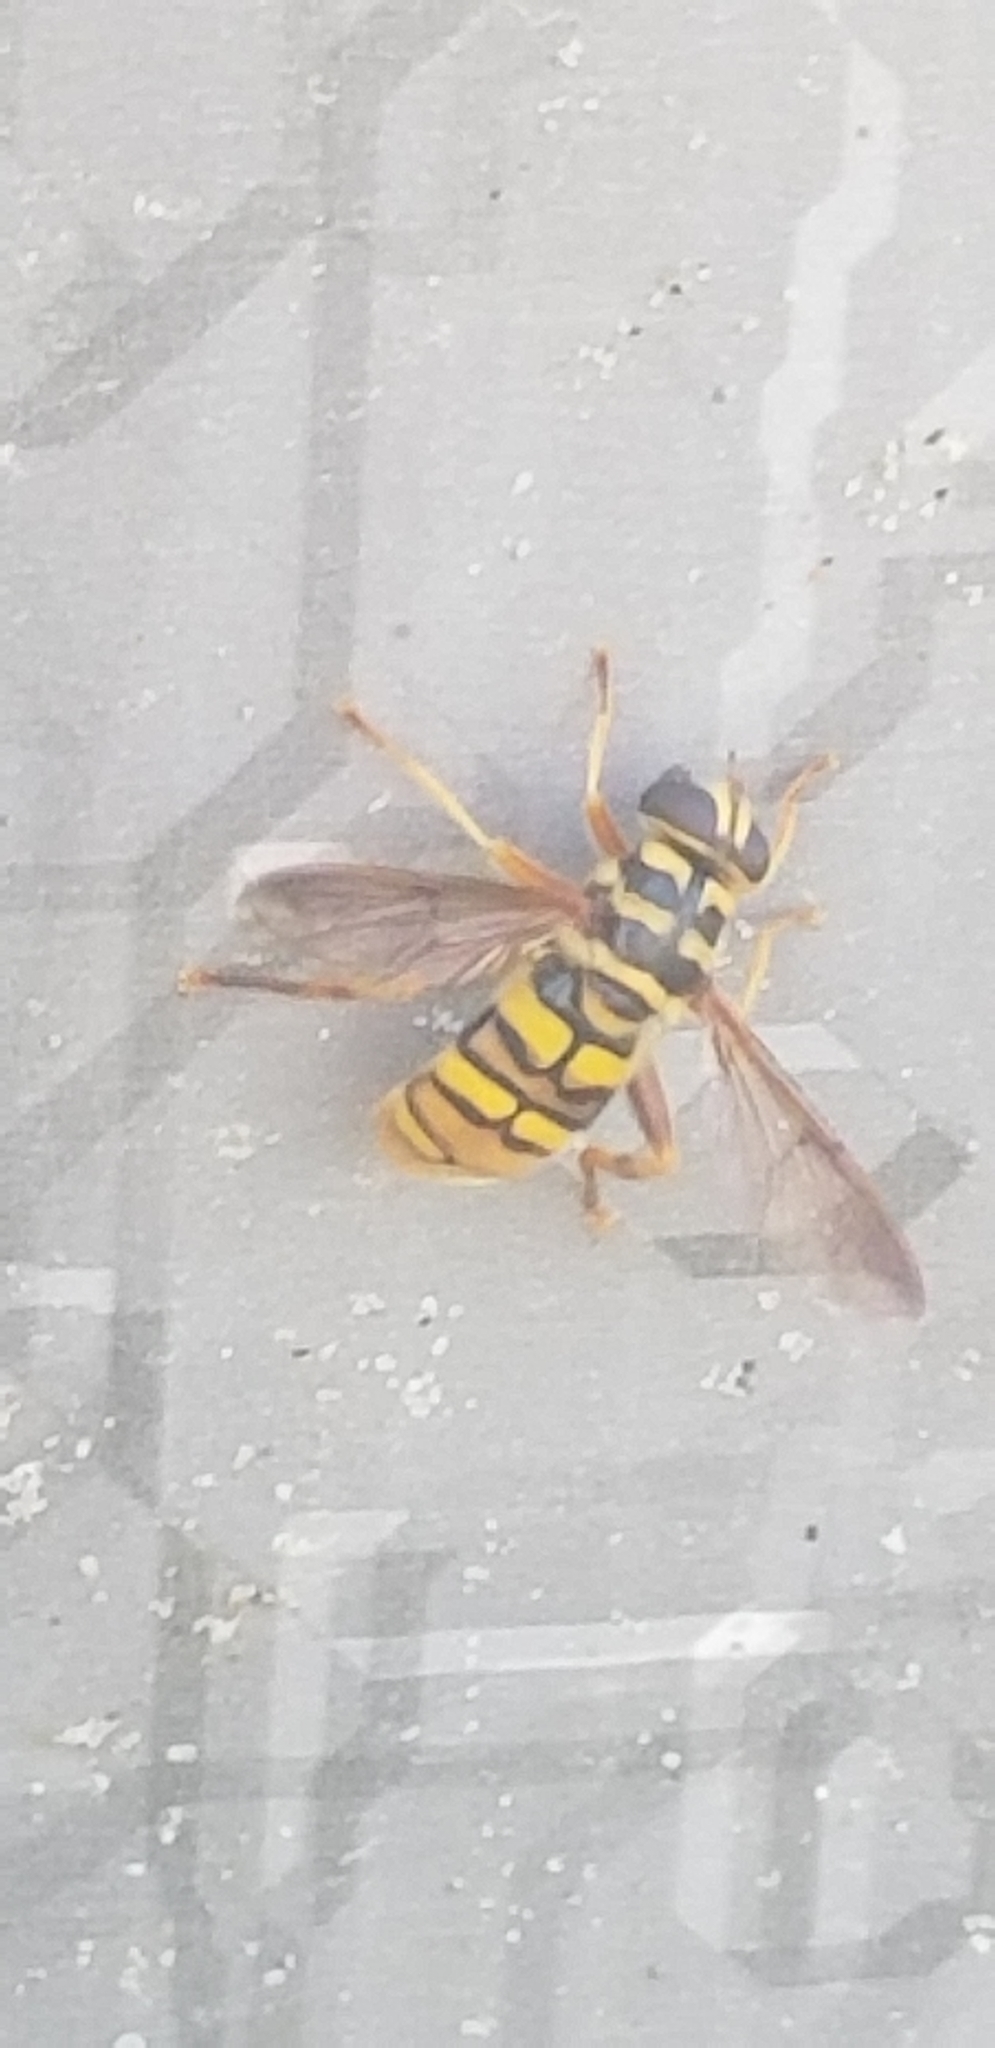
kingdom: Animalia
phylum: Arthropoda
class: Insecta
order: Diptera
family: Syrphidae
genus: Milesia
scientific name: Milesia virginiensis
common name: Virginia giant
